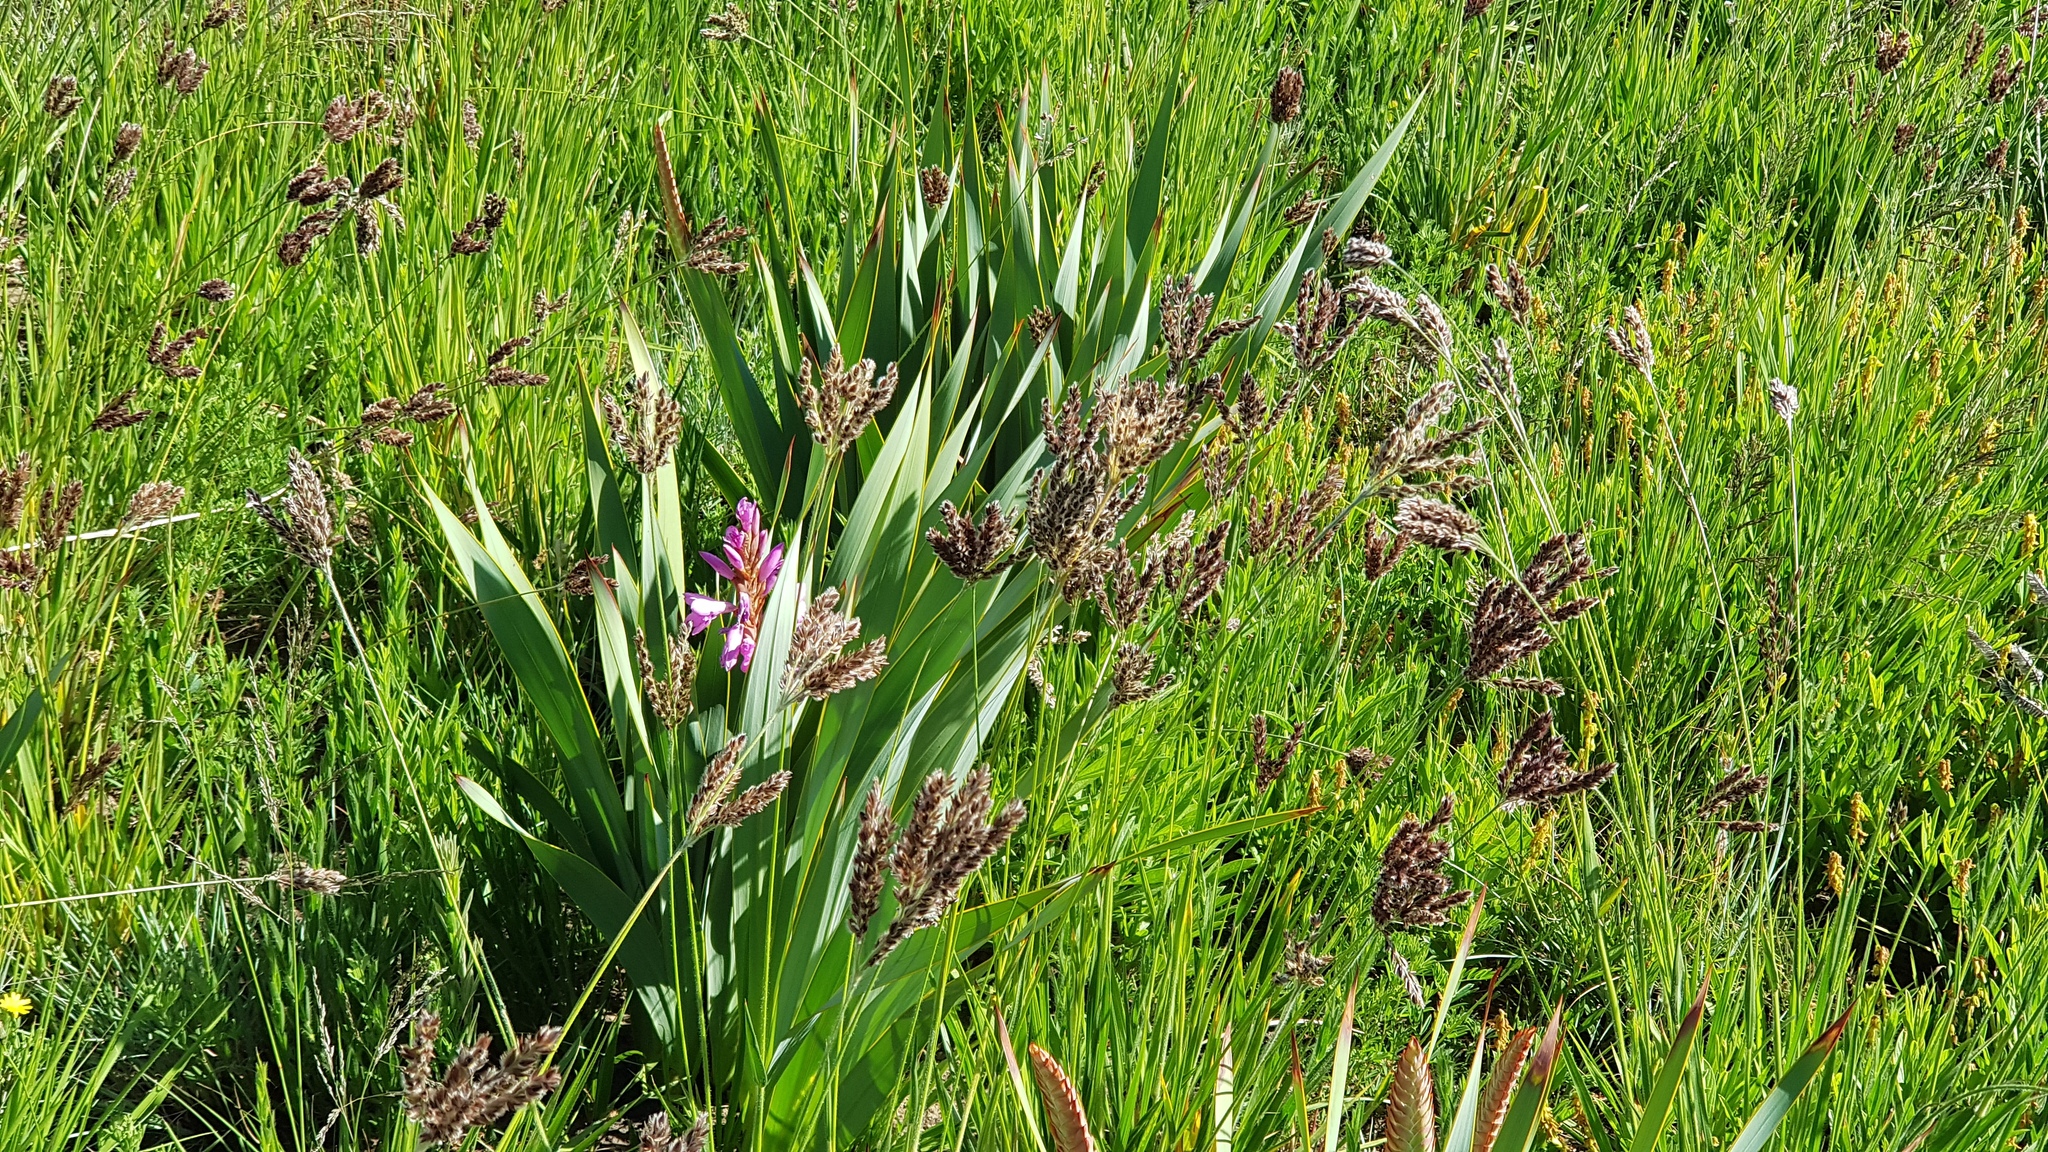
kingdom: Plantae
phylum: Tracheophyta
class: Liliopsida
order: Poales
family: Poaceae
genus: Alloteropsis
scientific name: Alloteropsis semialata
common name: Cockatoo grass
